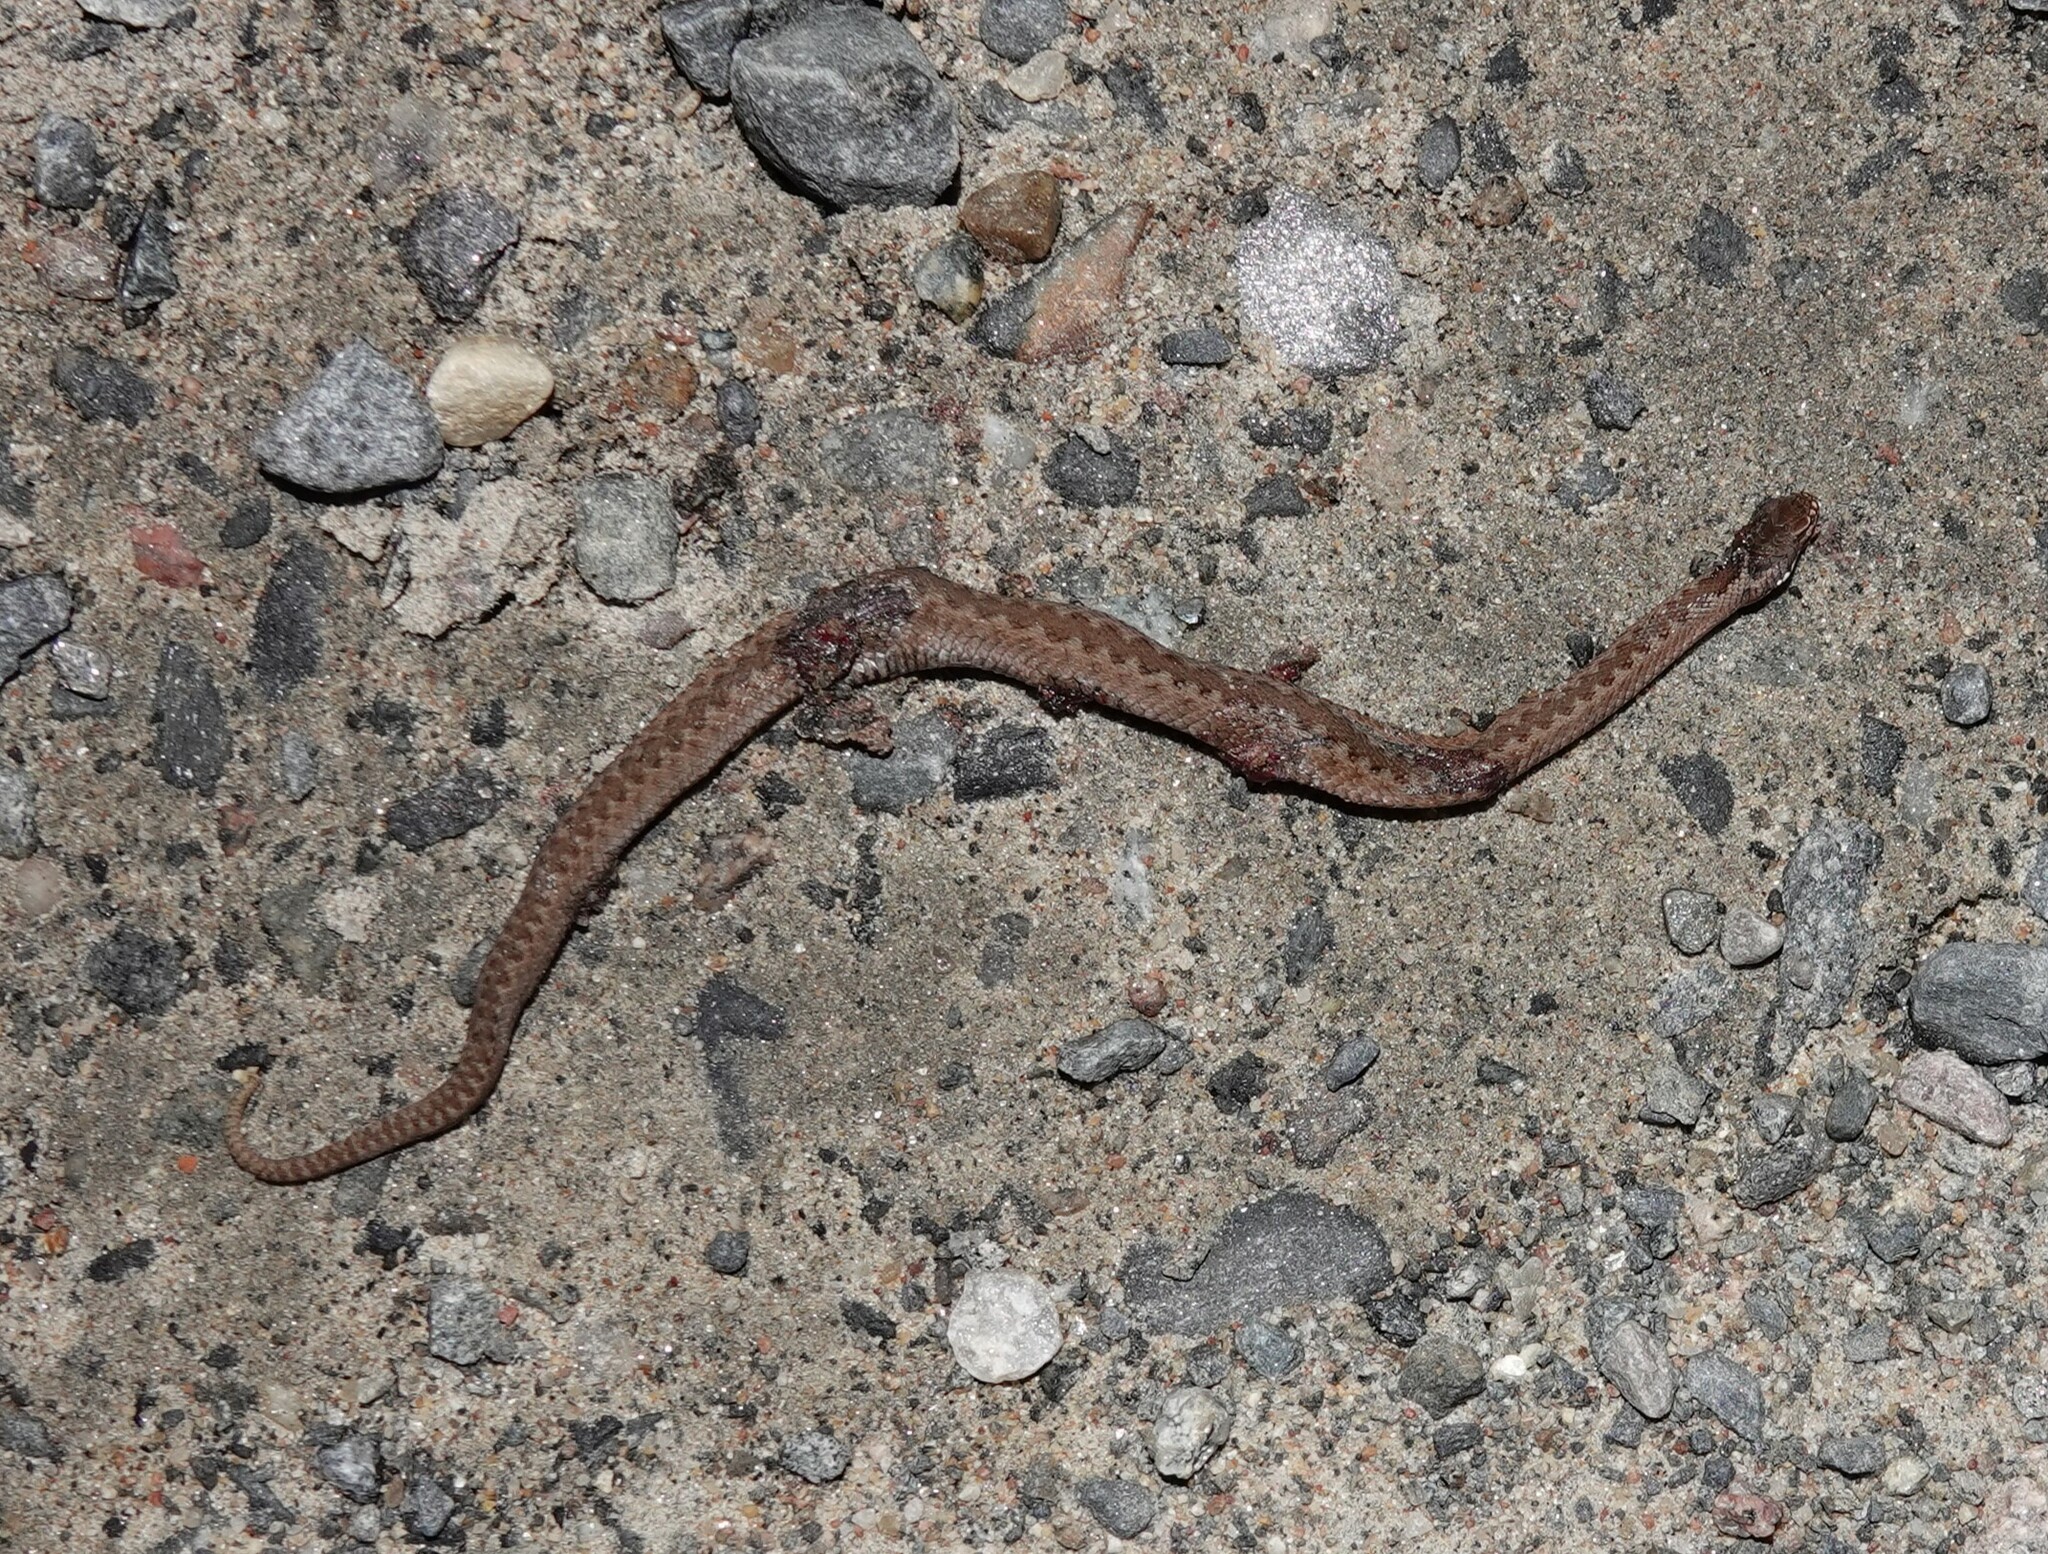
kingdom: Animalia
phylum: Chordata
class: Squamata
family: Viperidae
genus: Vipera
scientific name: Vipera berus
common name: Adder
